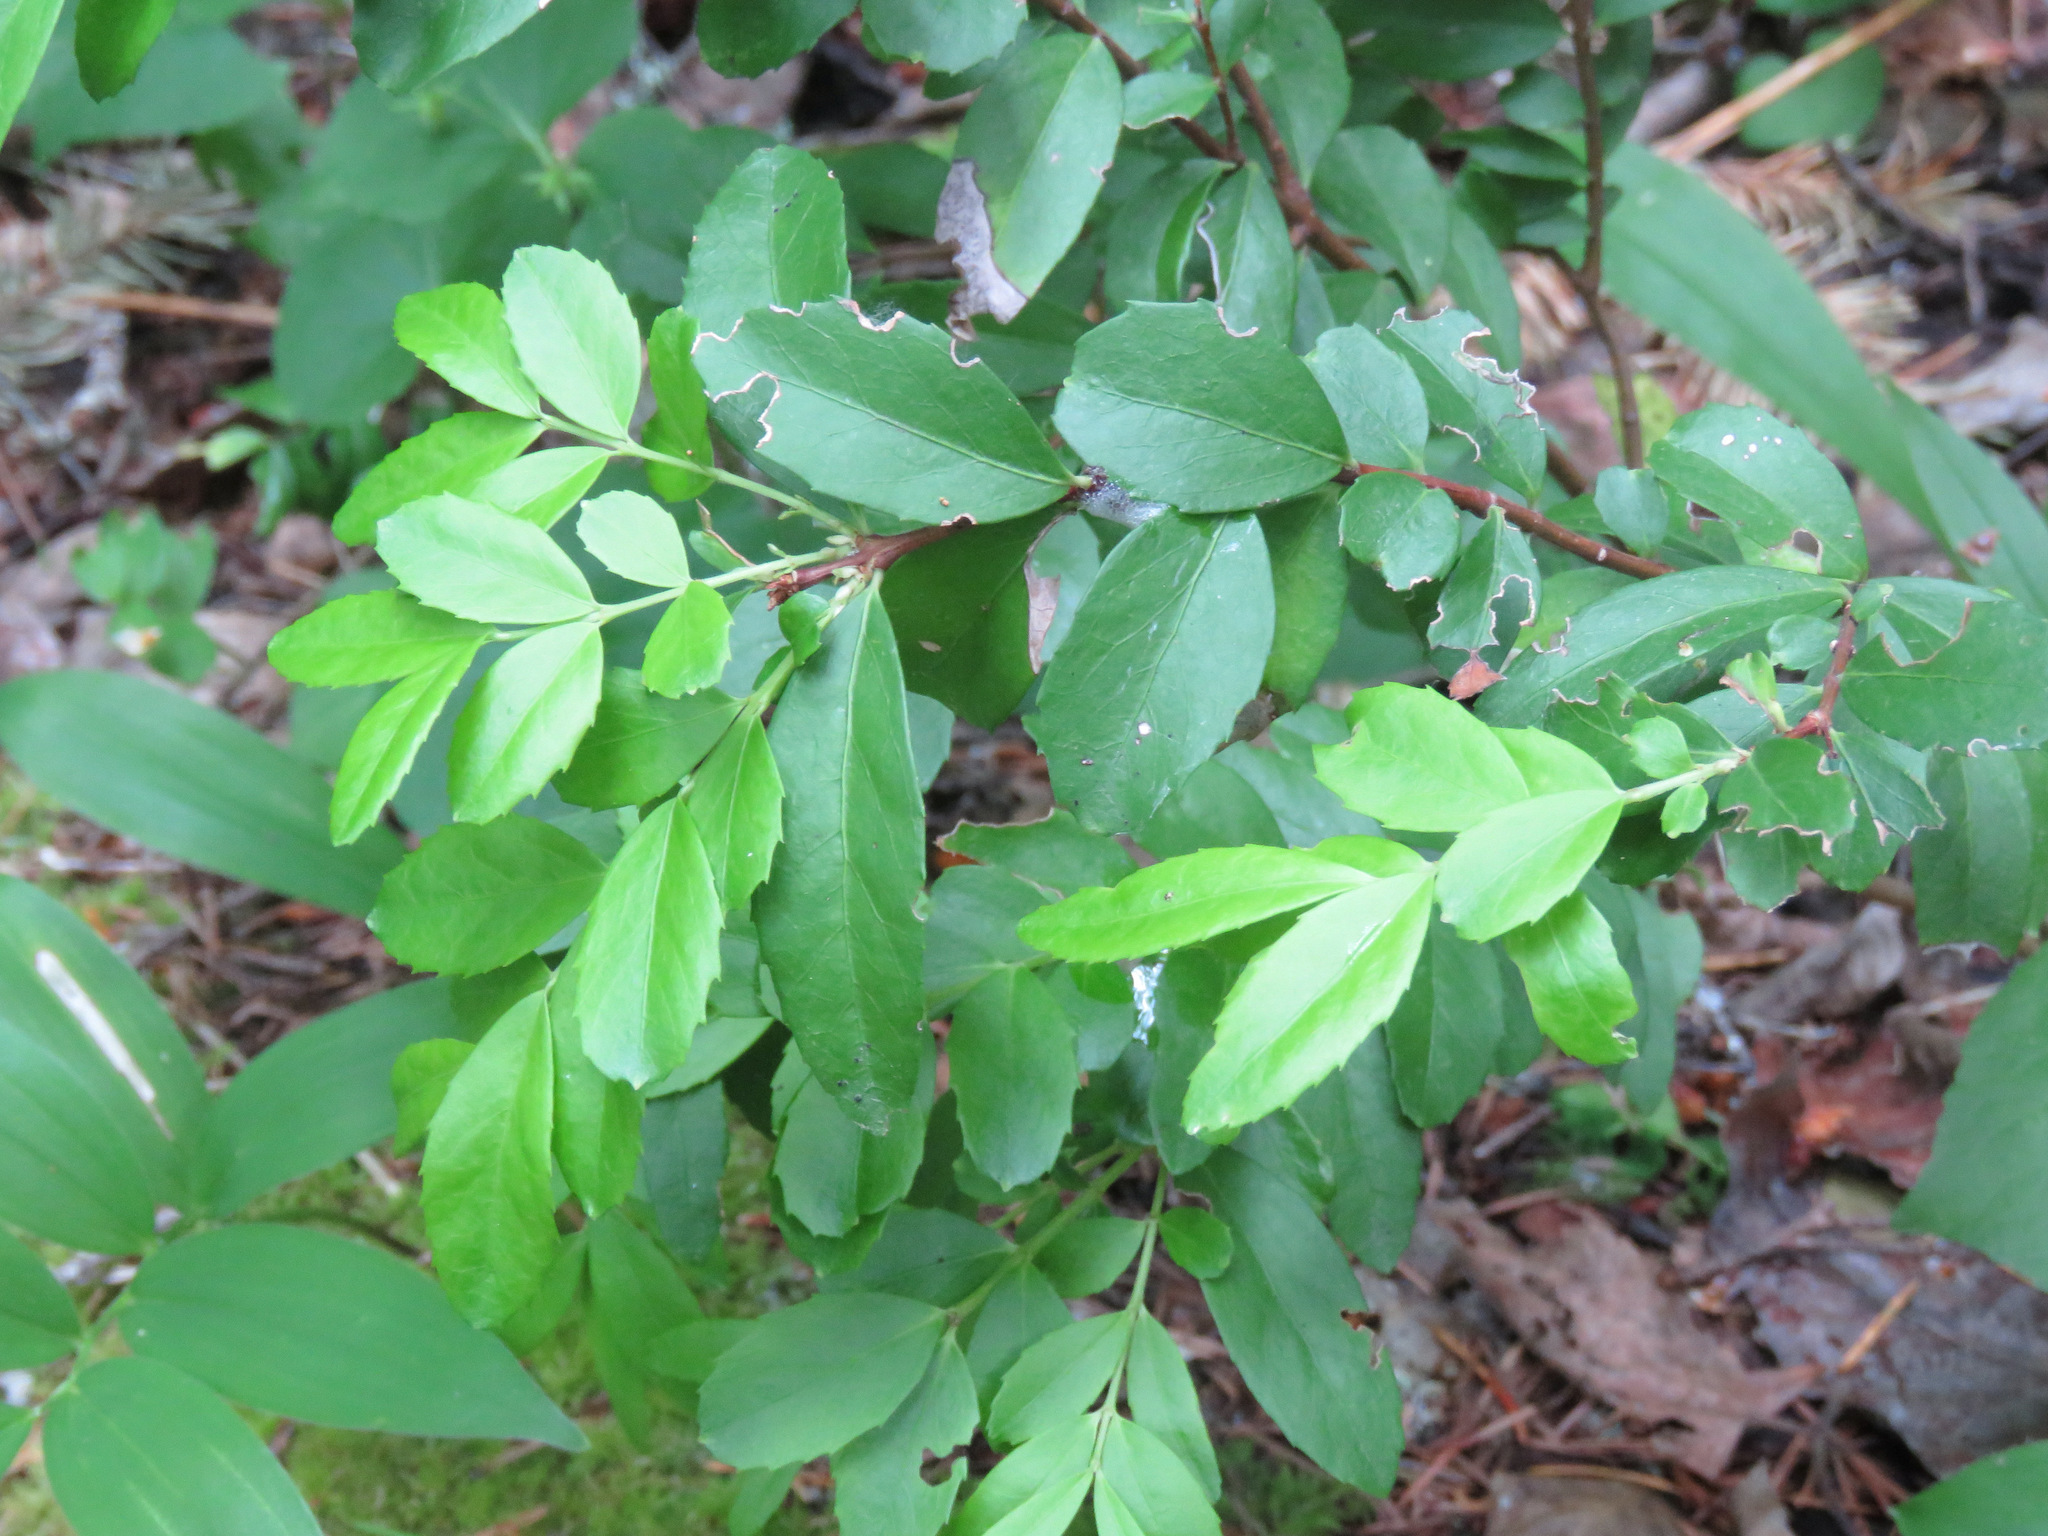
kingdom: Plantae
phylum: Tracheophyta
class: Magnoliopsida
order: Celastrales
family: Celastraceae
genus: Paxistima
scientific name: Paxistima myrsinites
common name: Mountain-lover
